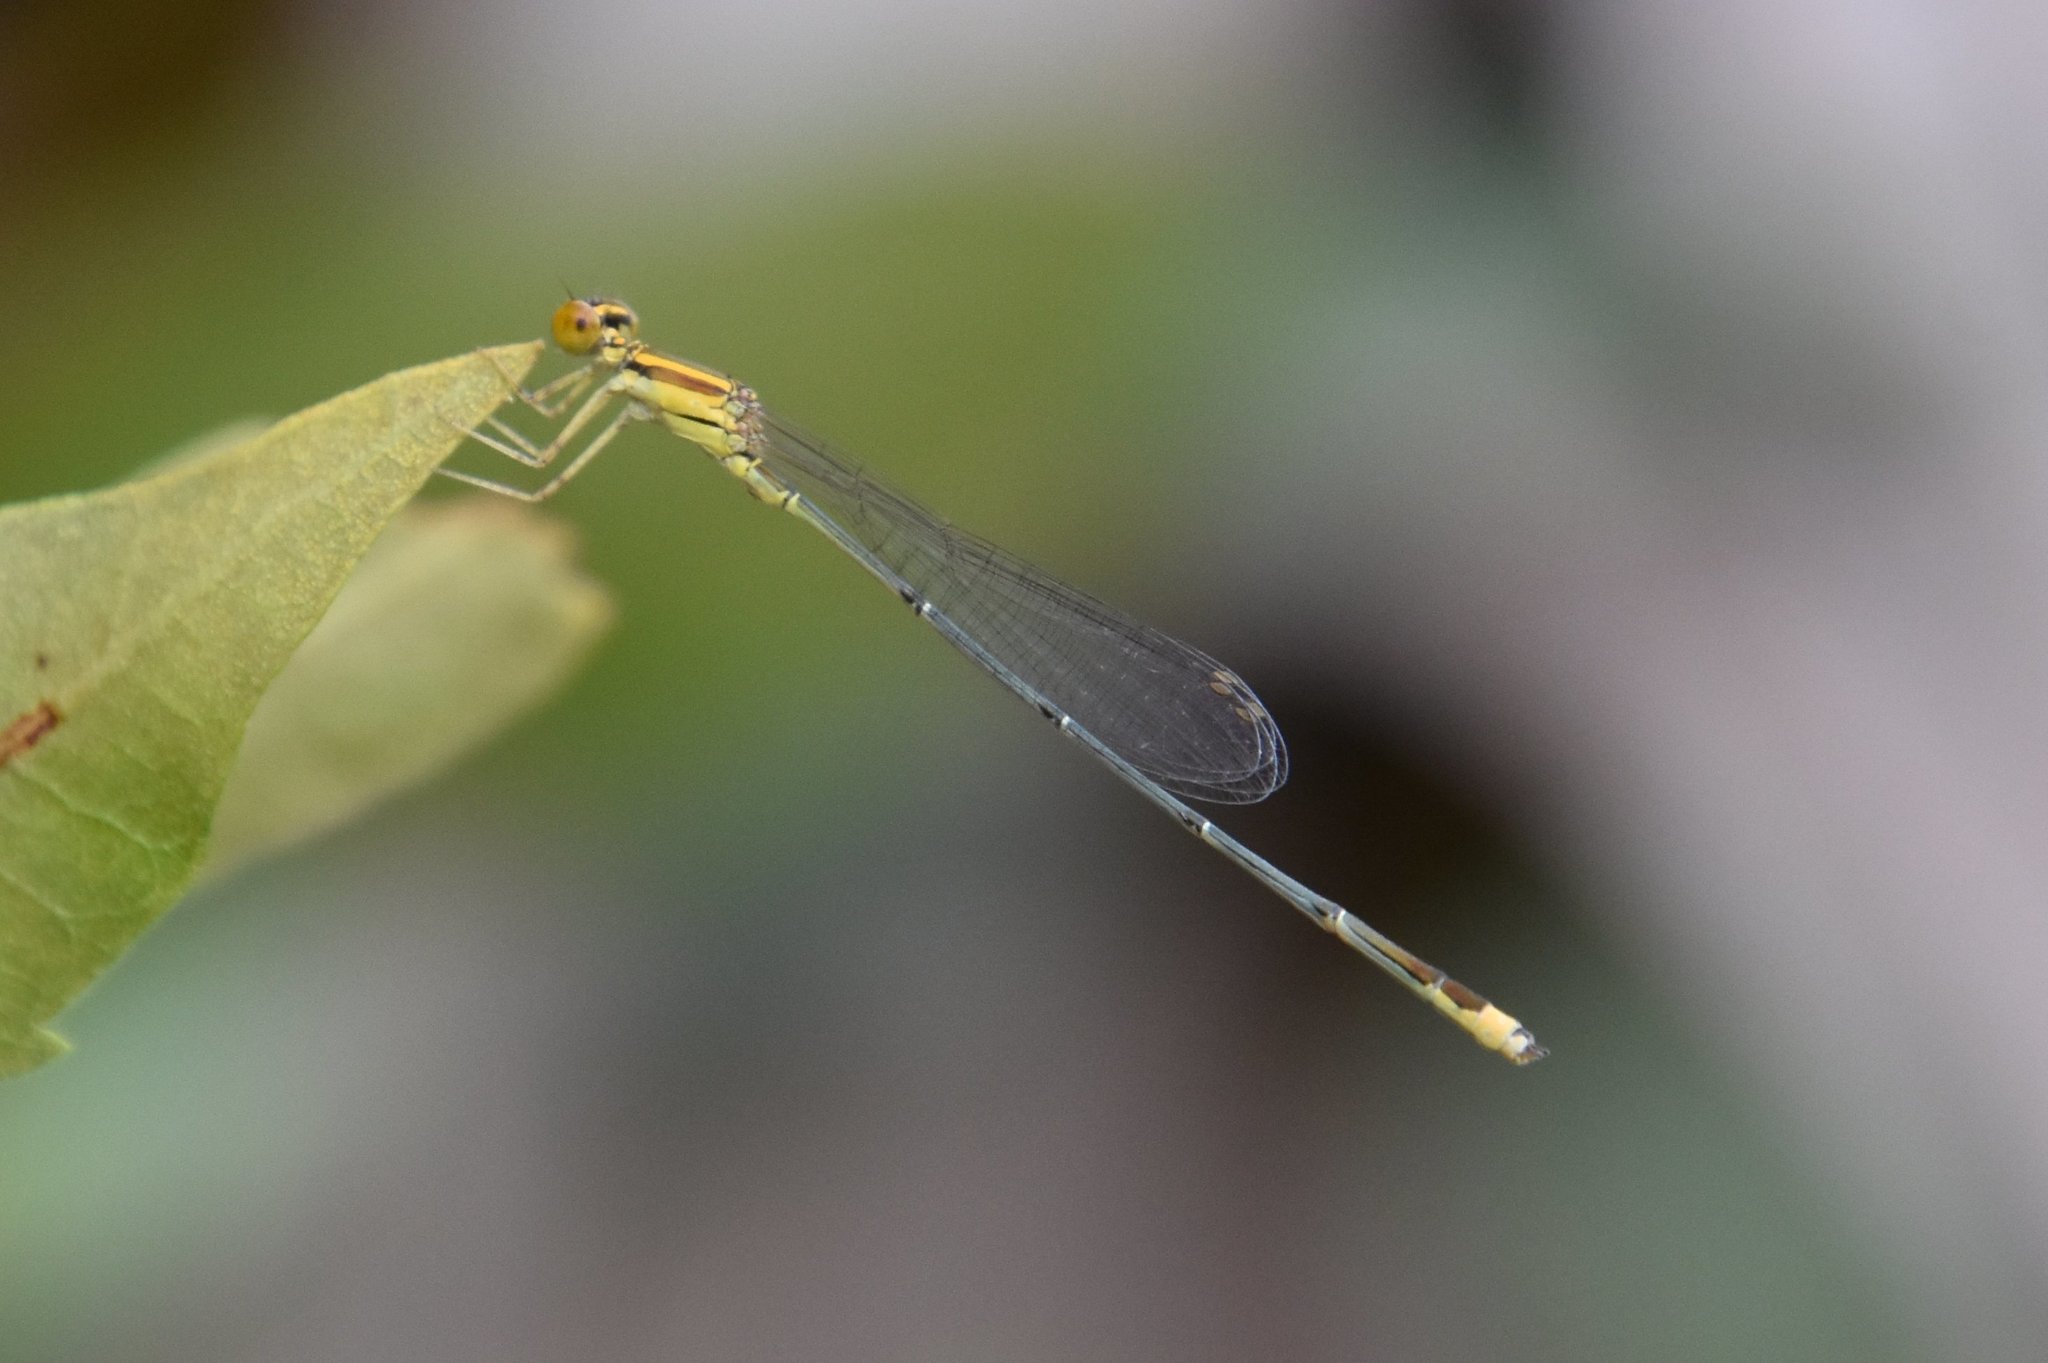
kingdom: Animalia
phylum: Arthropoda
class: Insecta
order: Odonata
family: Coenagrionidae
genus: Enallagma
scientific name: Enallagma pollutum
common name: Florida bluet
